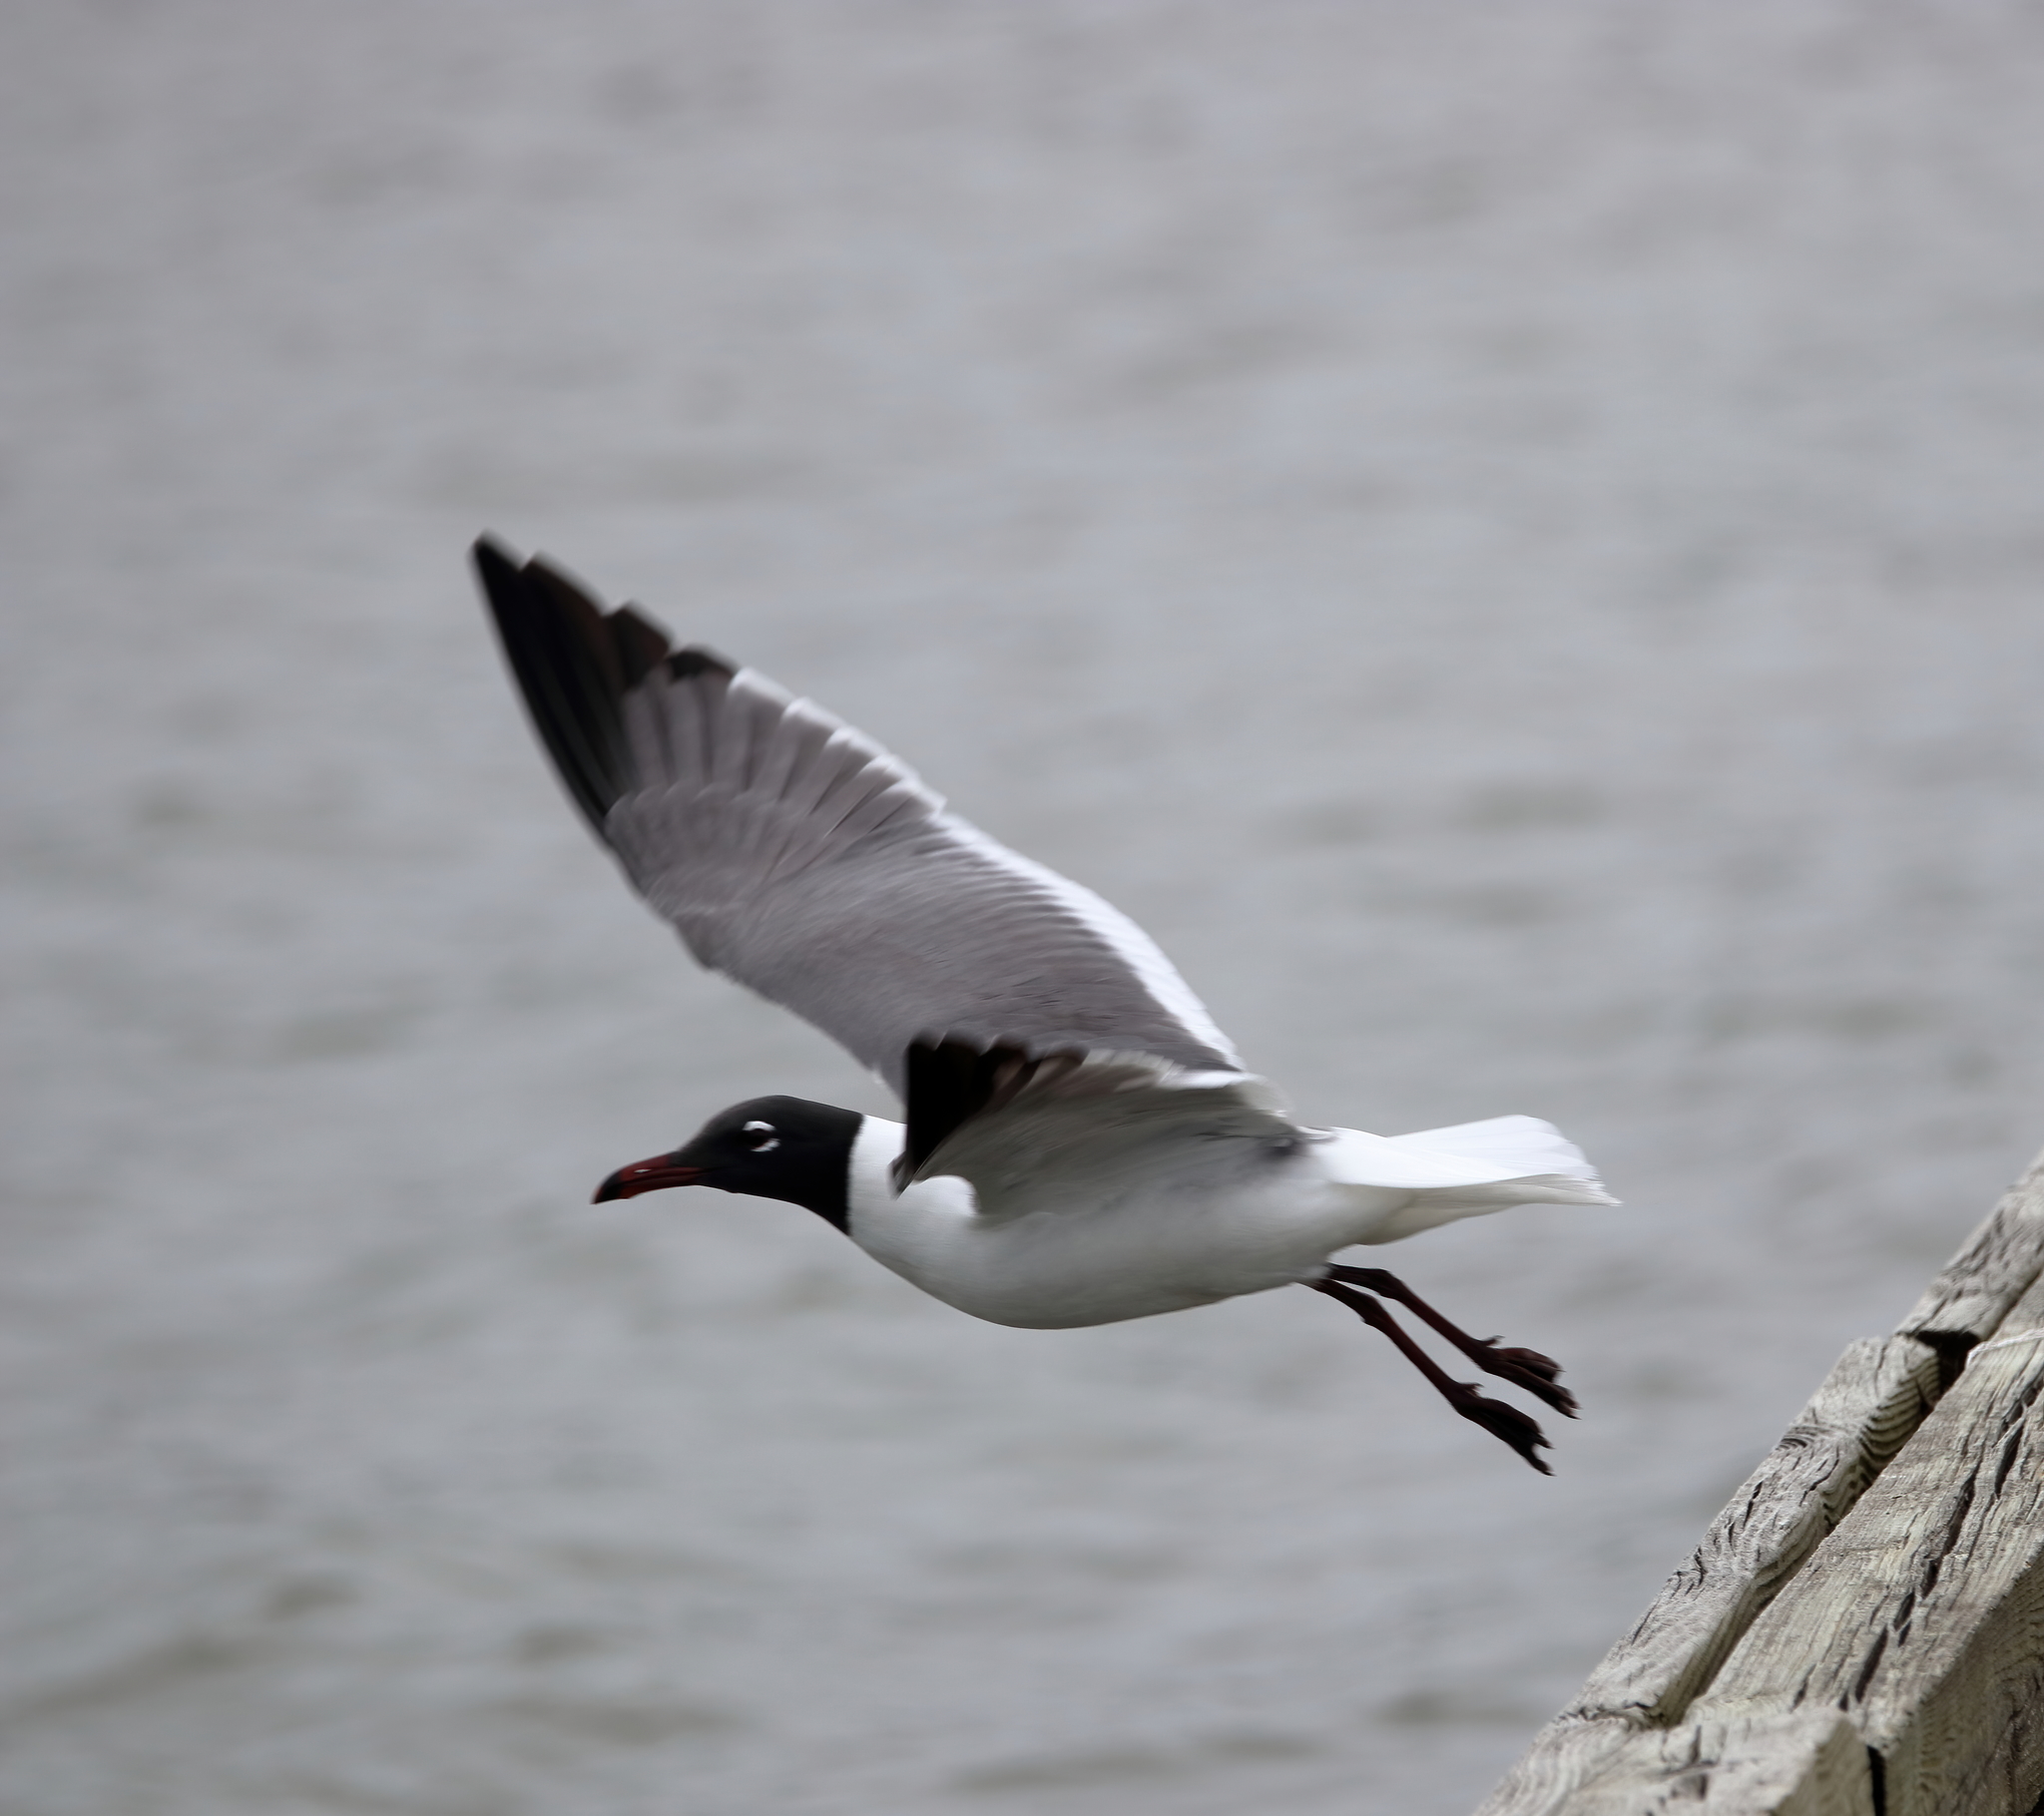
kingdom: Animalia
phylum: Chordata
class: Aves
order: Charadriiformes
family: Laridae
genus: Leucophaeus
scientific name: Leucophaeus atricilla
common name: Laughing gull
